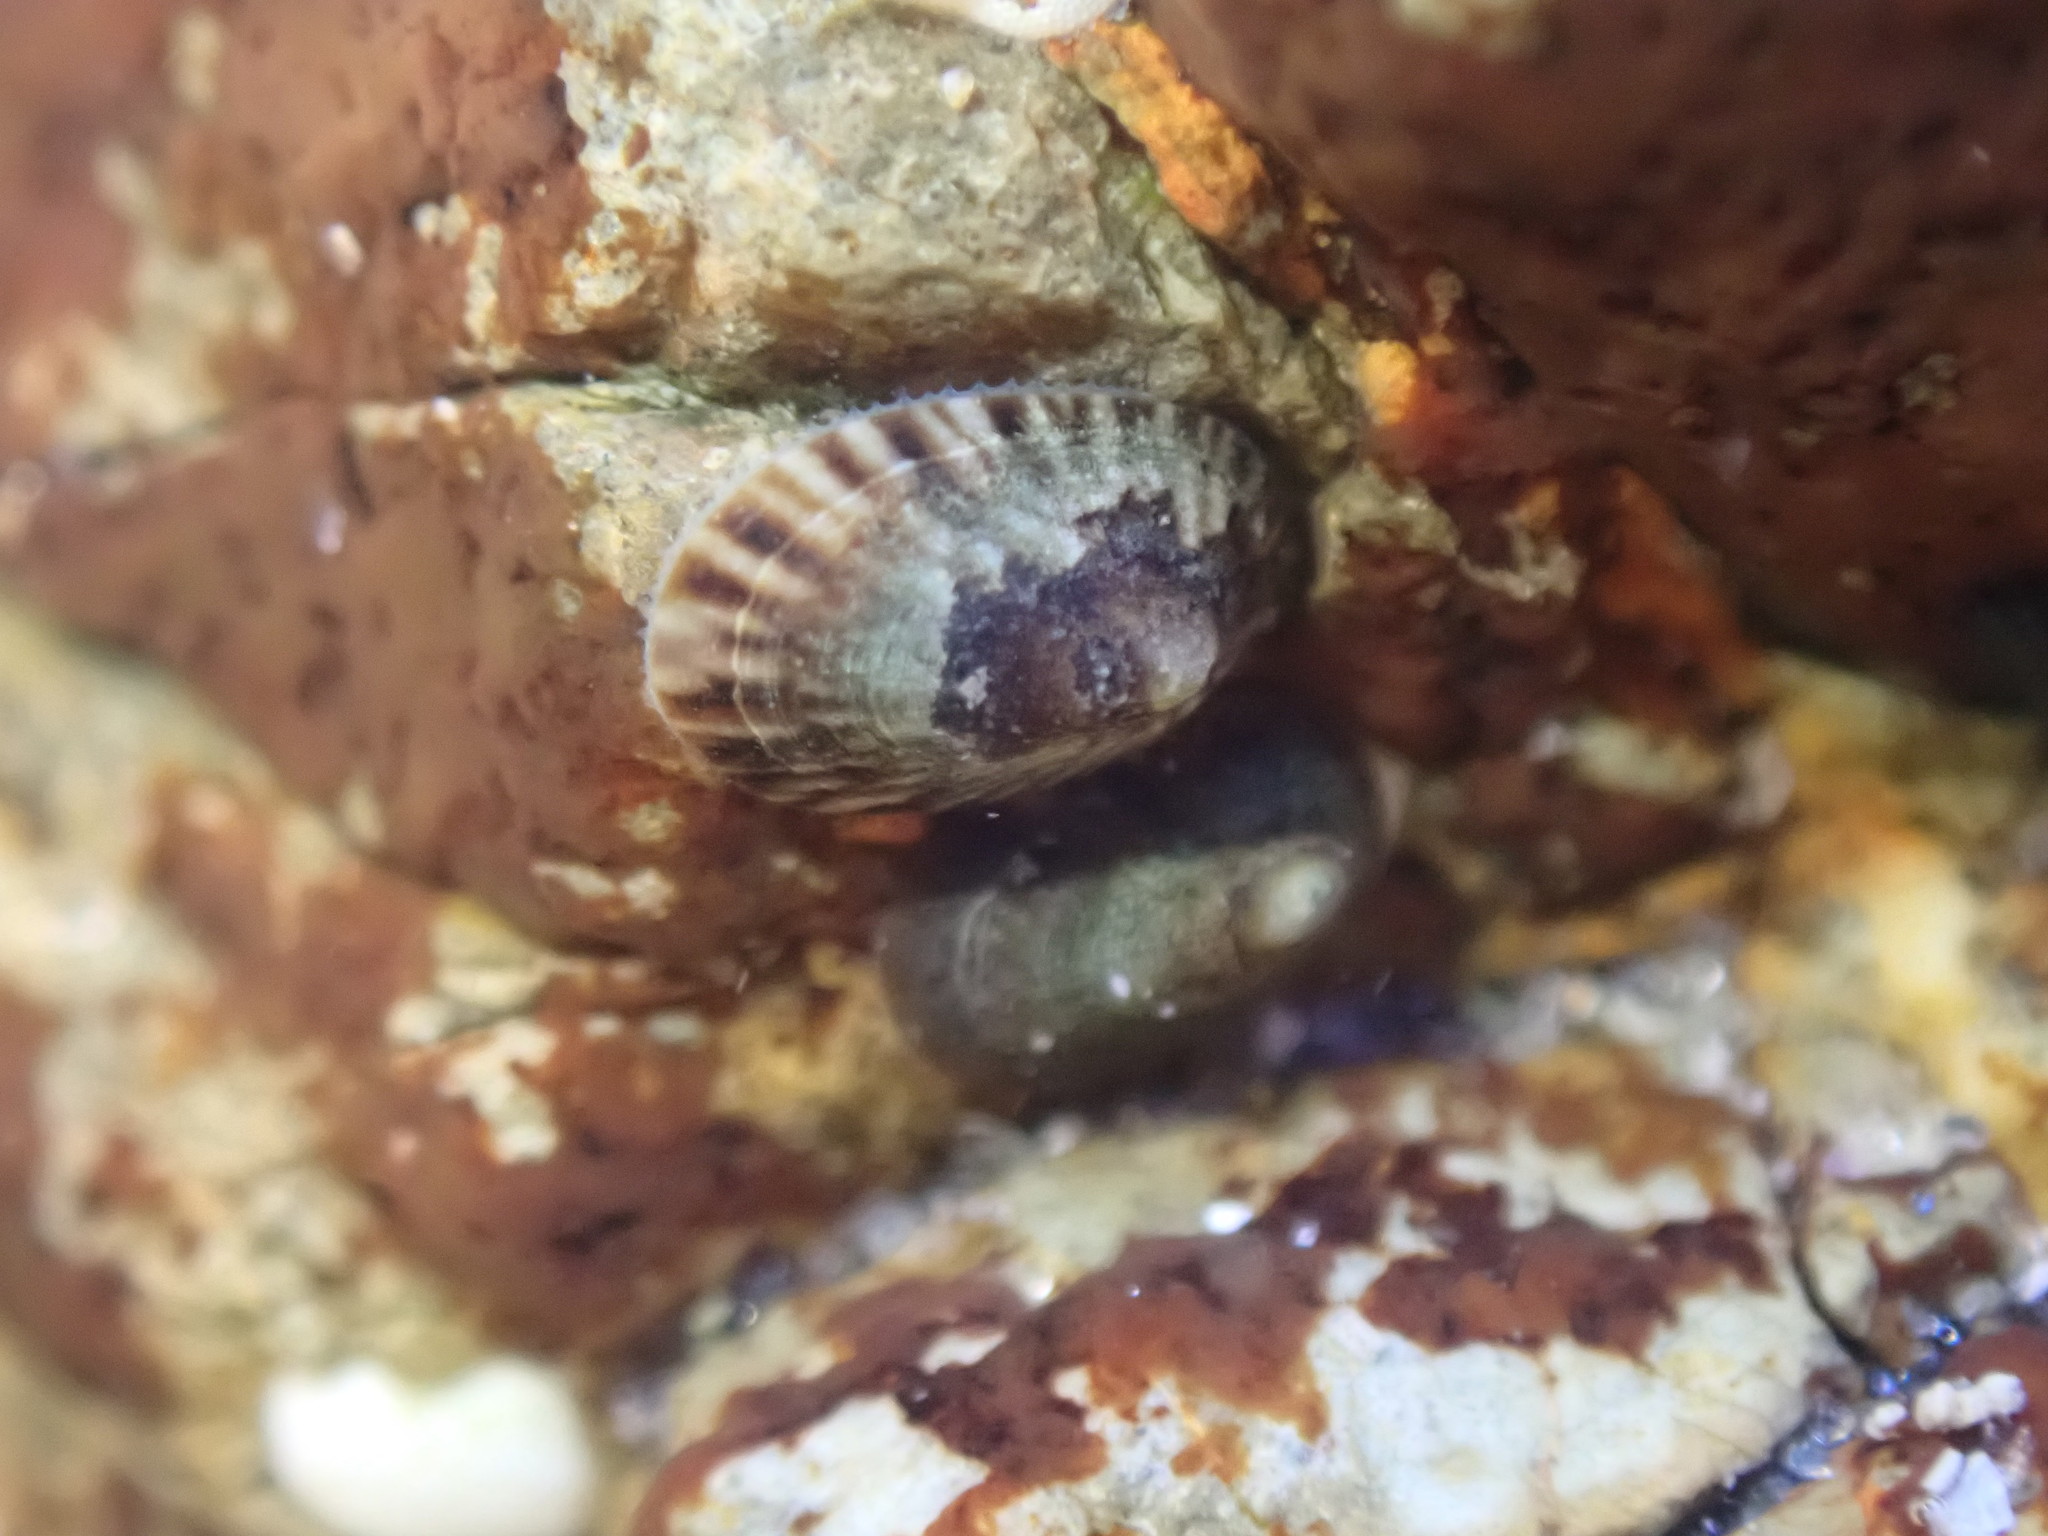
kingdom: Animalia
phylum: Mollusca
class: Gastropoda
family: Lottiidae
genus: Notoacmea
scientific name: Notoacmea parviconoidea
